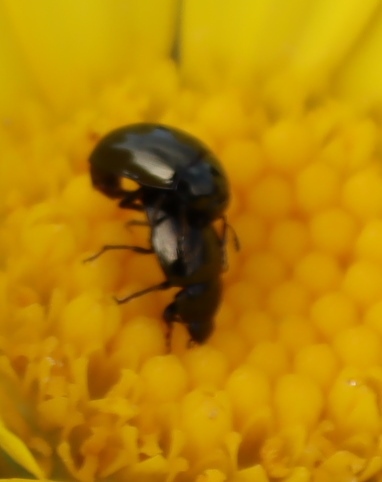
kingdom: Plantae
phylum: Tracheophyta
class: Magnoliopsida
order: Asterales
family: Asteraceae
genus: Euryops
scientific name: Euryops abrotanifolius
